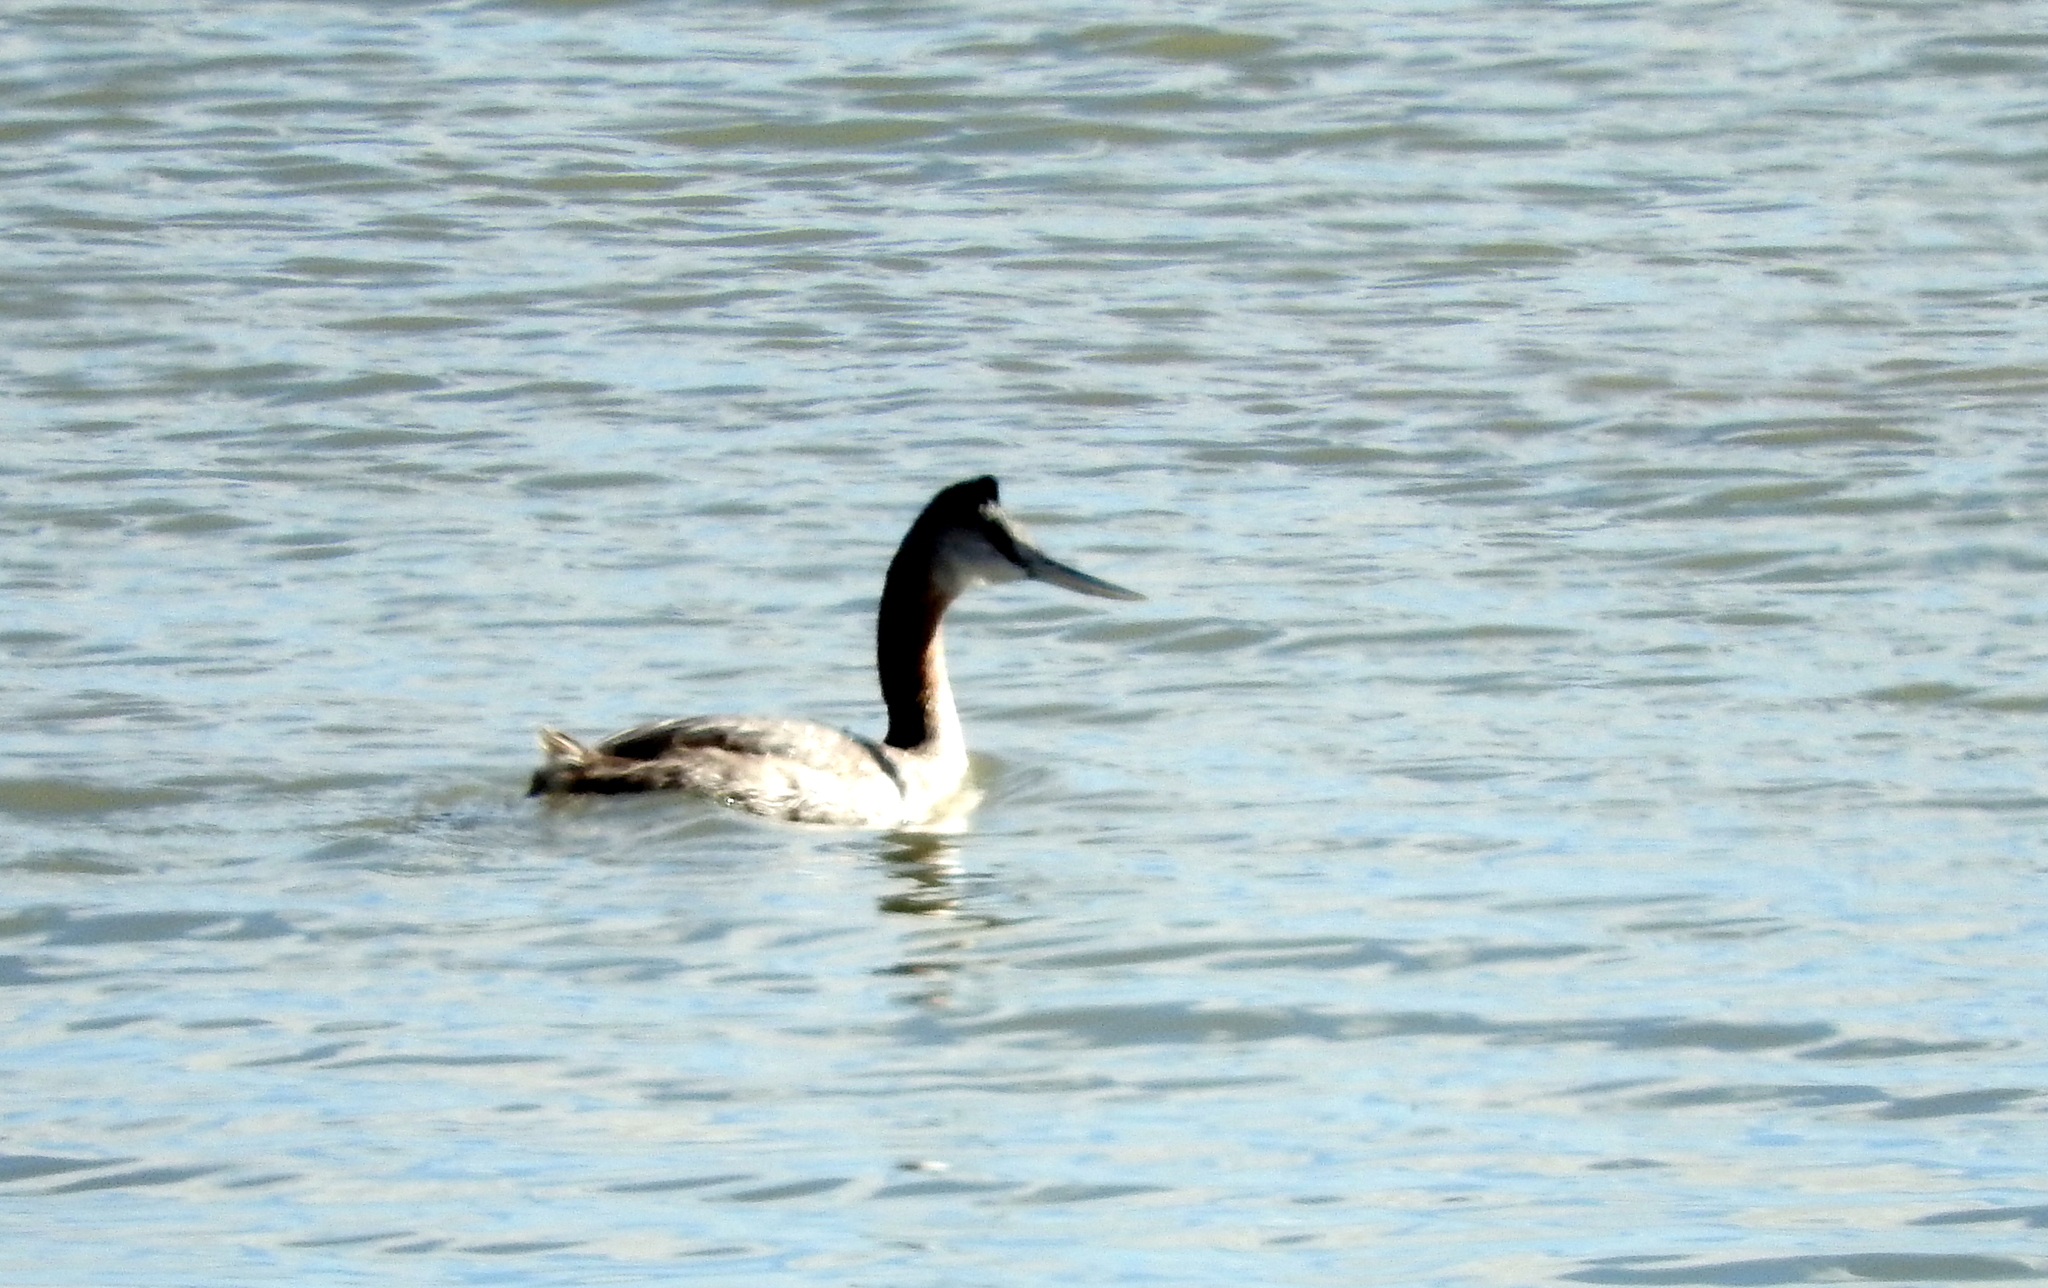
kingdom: Animalia
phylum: Chordata
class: Aves
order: Podicipediformes
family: Podicipedidae
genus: Podiceps
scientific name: Podiceps major
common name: Great grebe
